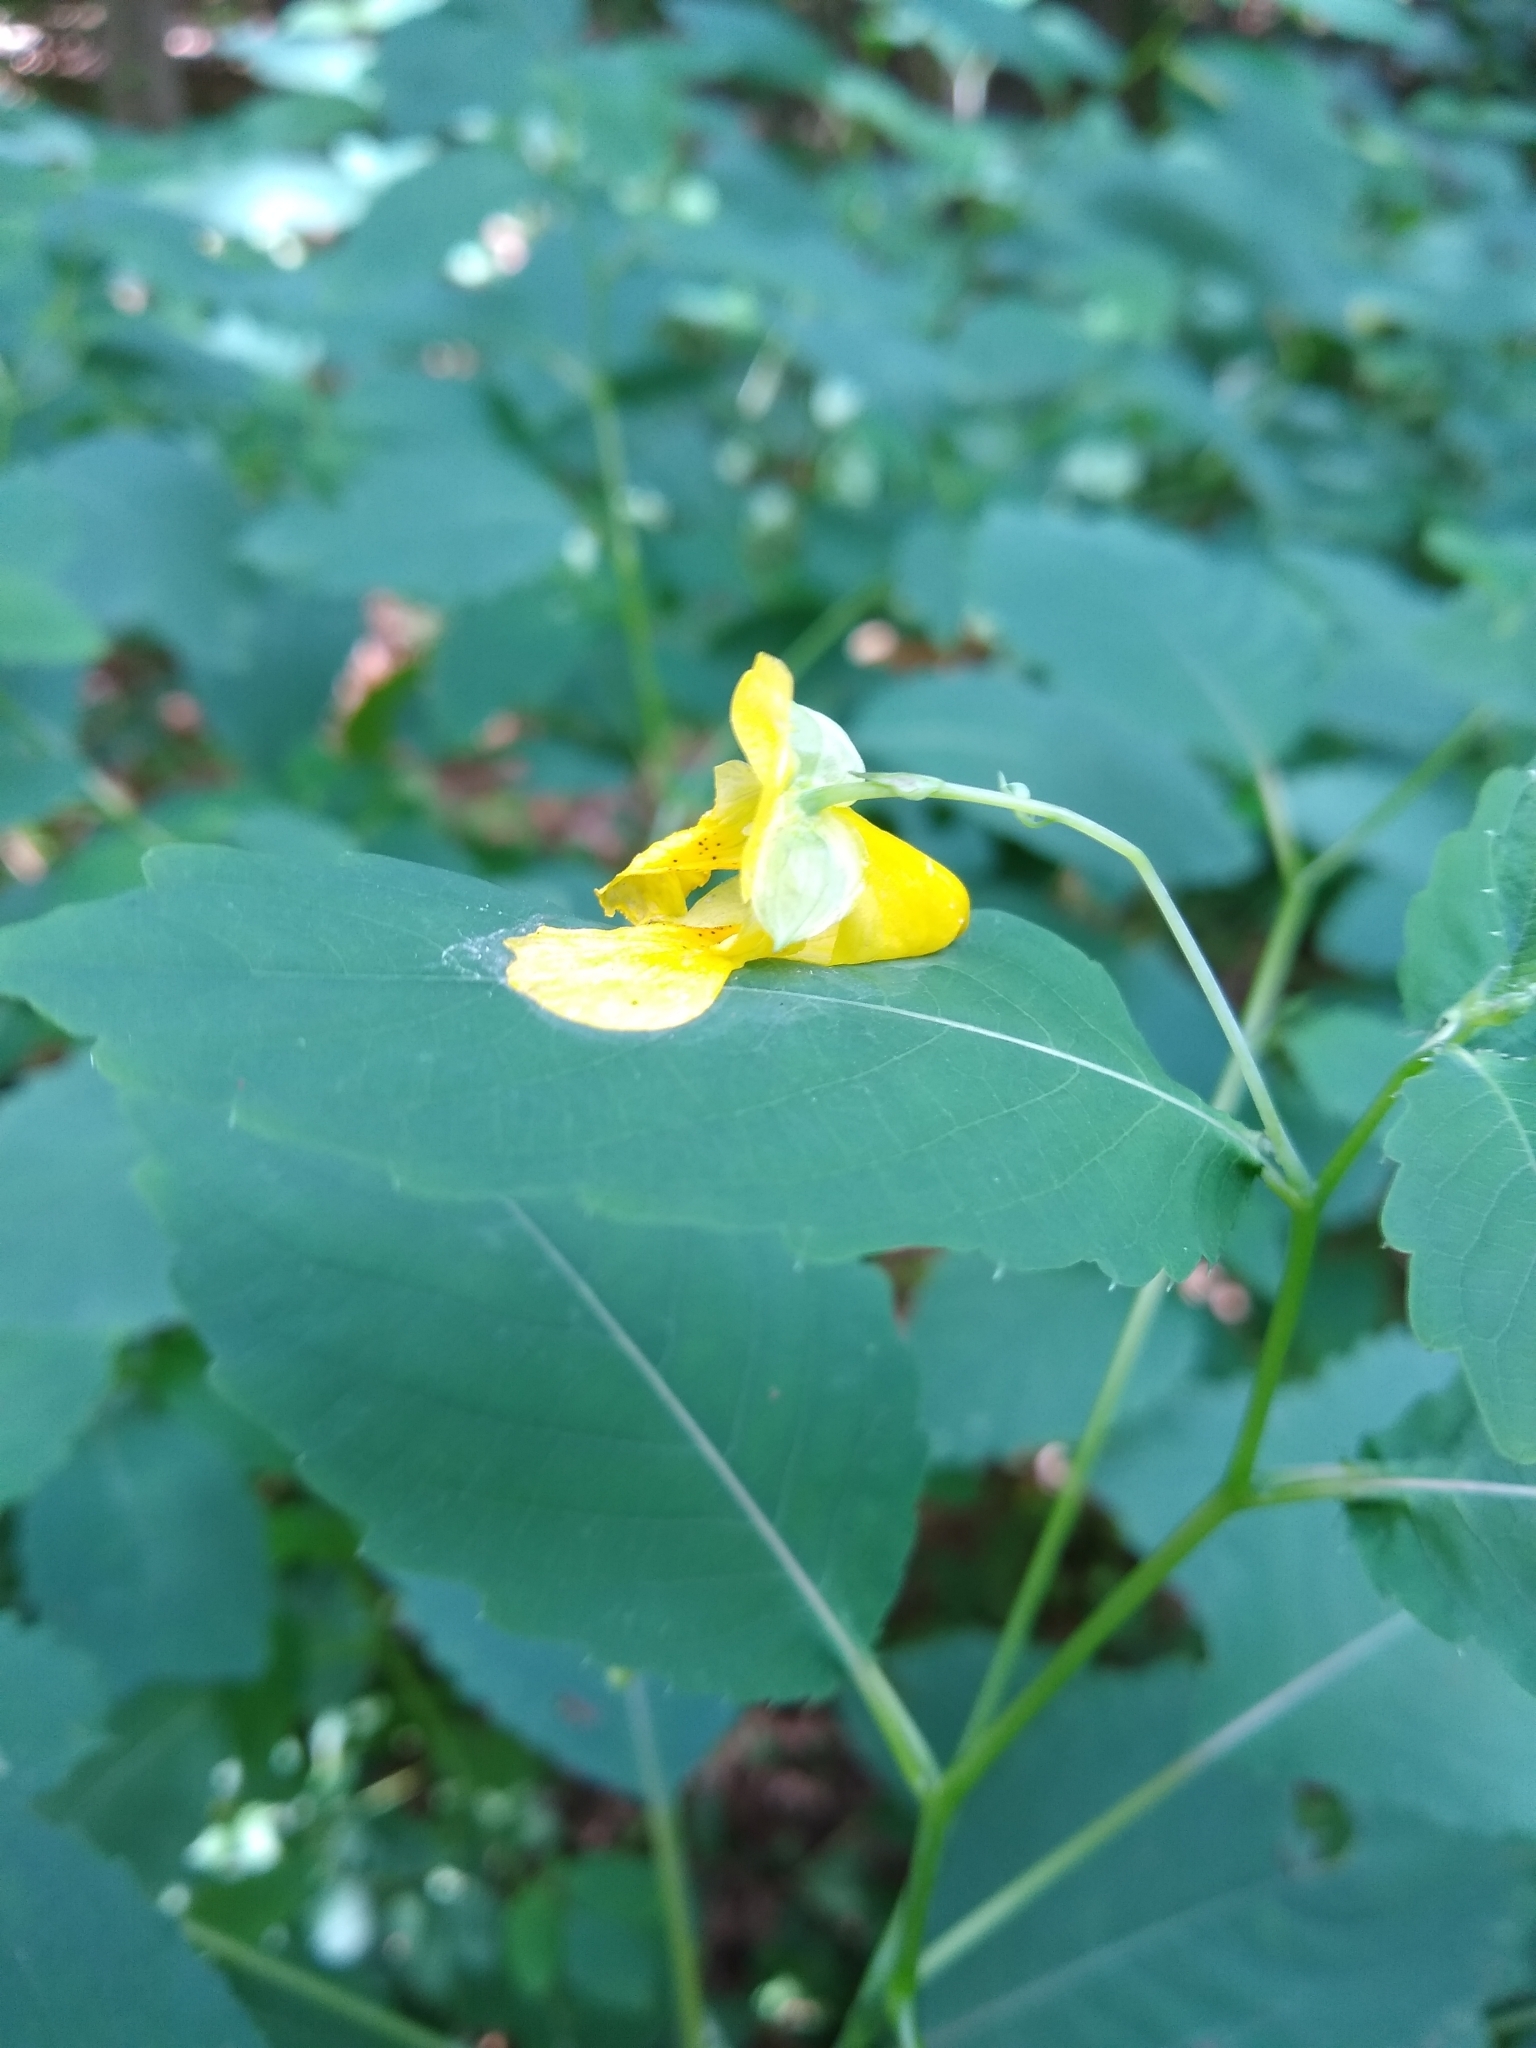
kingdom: Plantae
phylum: Tracheophyta
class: Magnoliopsida
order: Ericales
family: Balsaminaceae
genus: Impatiens
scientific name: Impatiens pallida
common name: Pale snapweed
